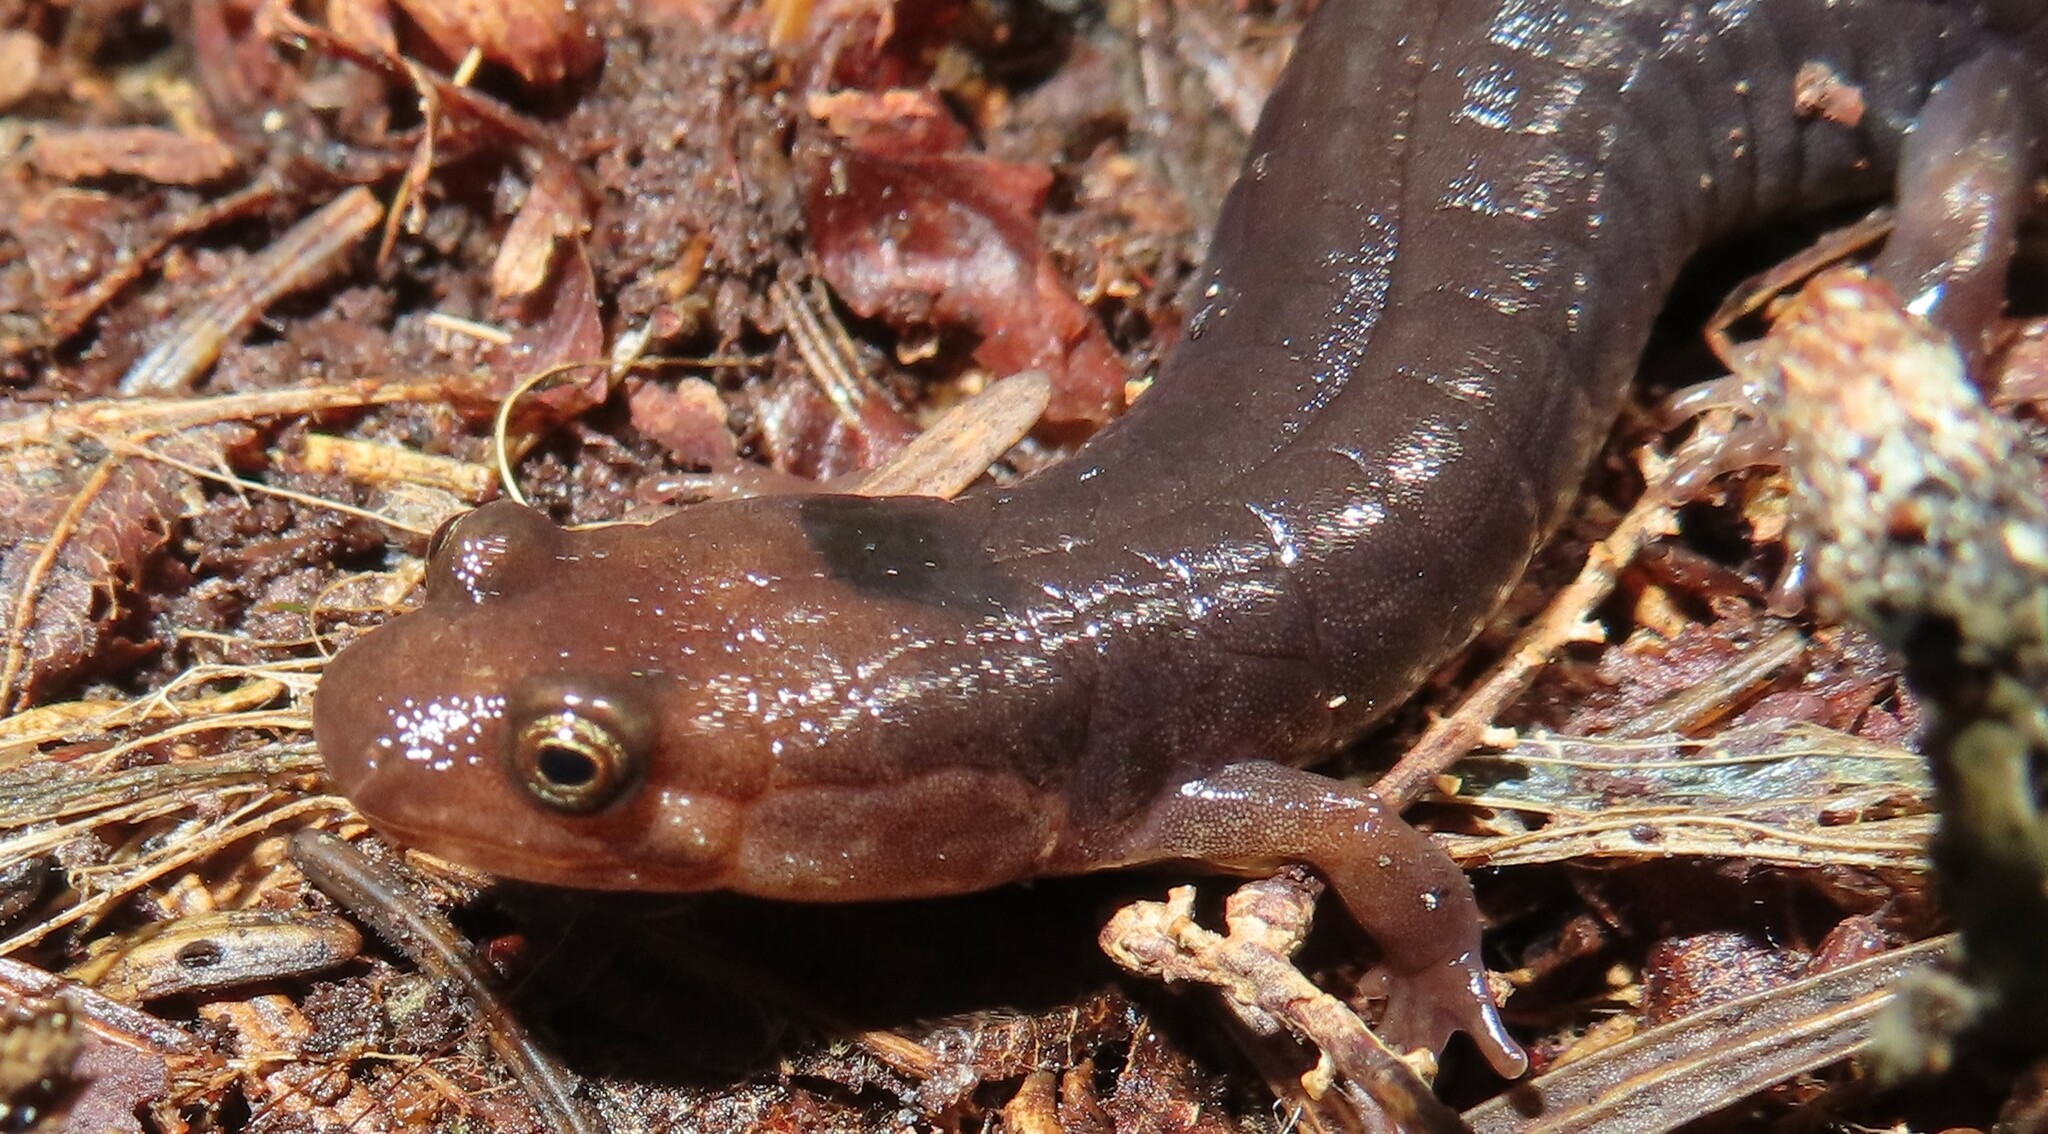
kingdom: Animalia
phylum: Chordata
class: Amphibia
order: Caudata
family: Plethodontidae
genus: Desmognathus
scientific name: Desmognathus imitator
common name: Imitator salamander
